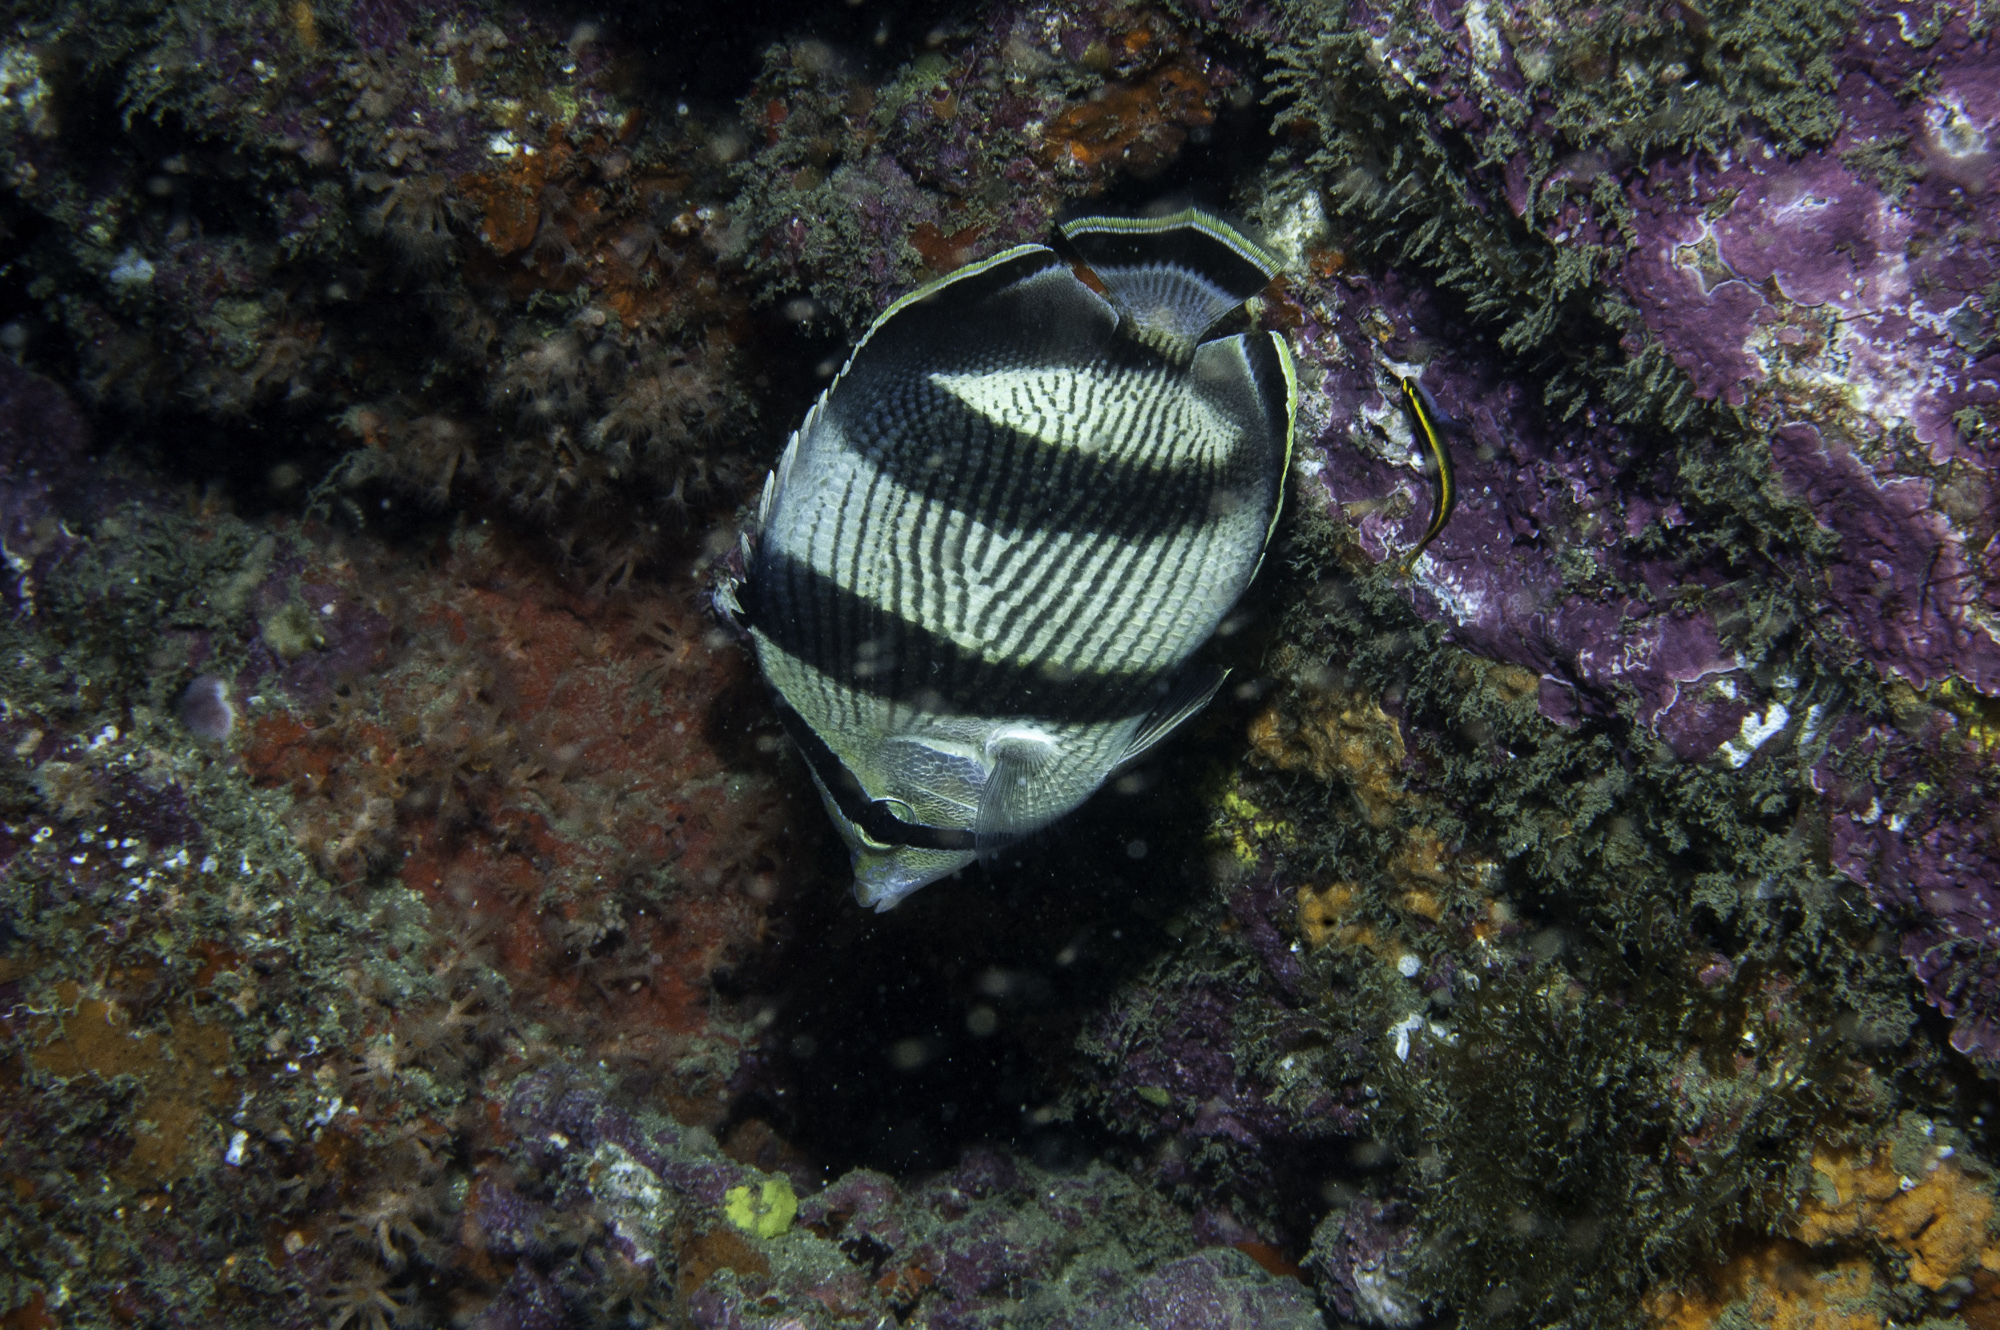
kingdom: Animalia
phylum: Chordata
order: Perciformes
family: Chaetodontidae
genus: Chaetodon
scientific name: Chaetodon striatus
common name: Banded butterflyfish
